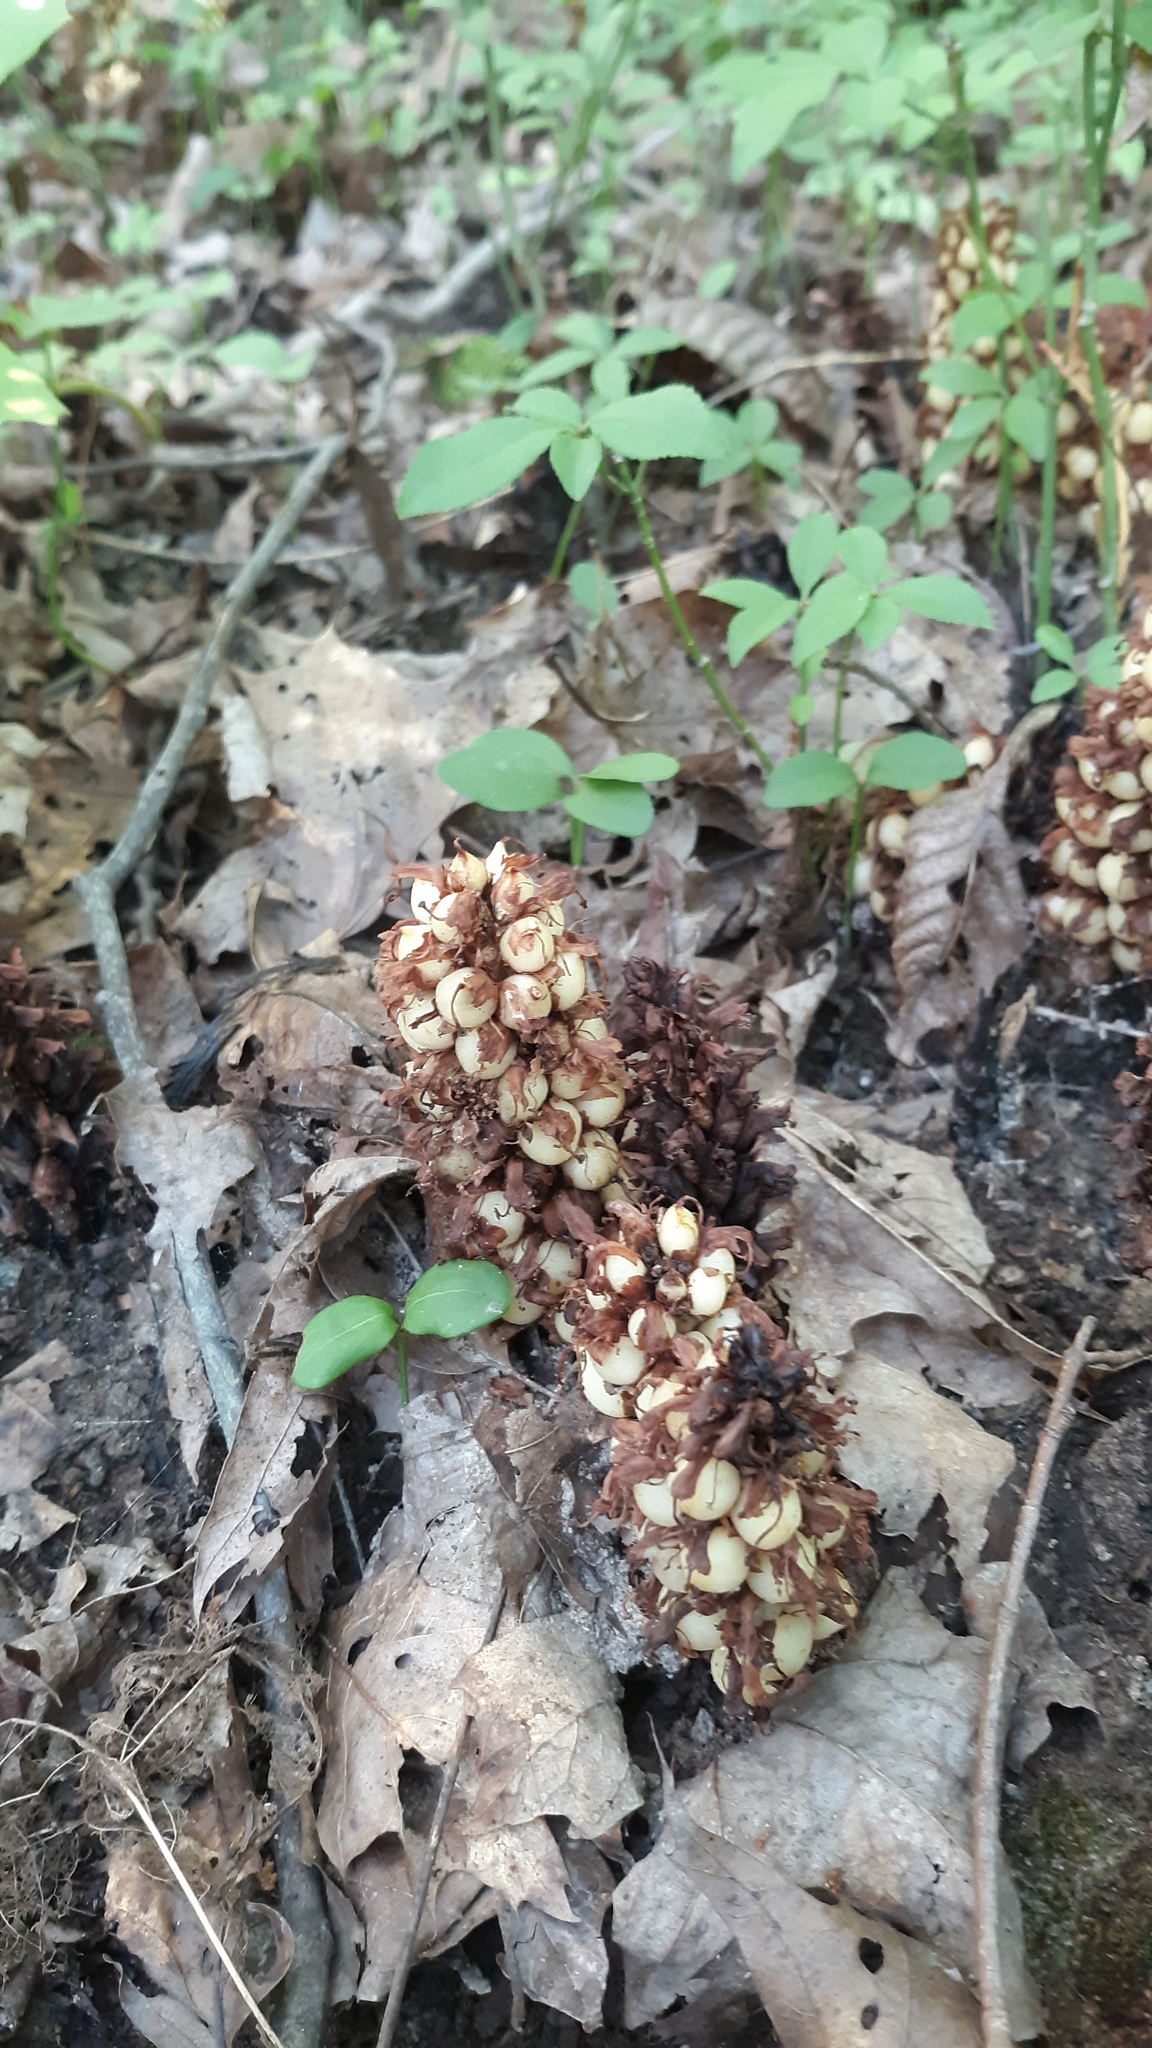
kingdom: Plantae
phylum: Tracheophyta
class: Magnoliopsida
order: Lamiales
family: Orobanchaceae
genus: Conopholis
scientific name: Conopholis americana
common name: American cancer-root
